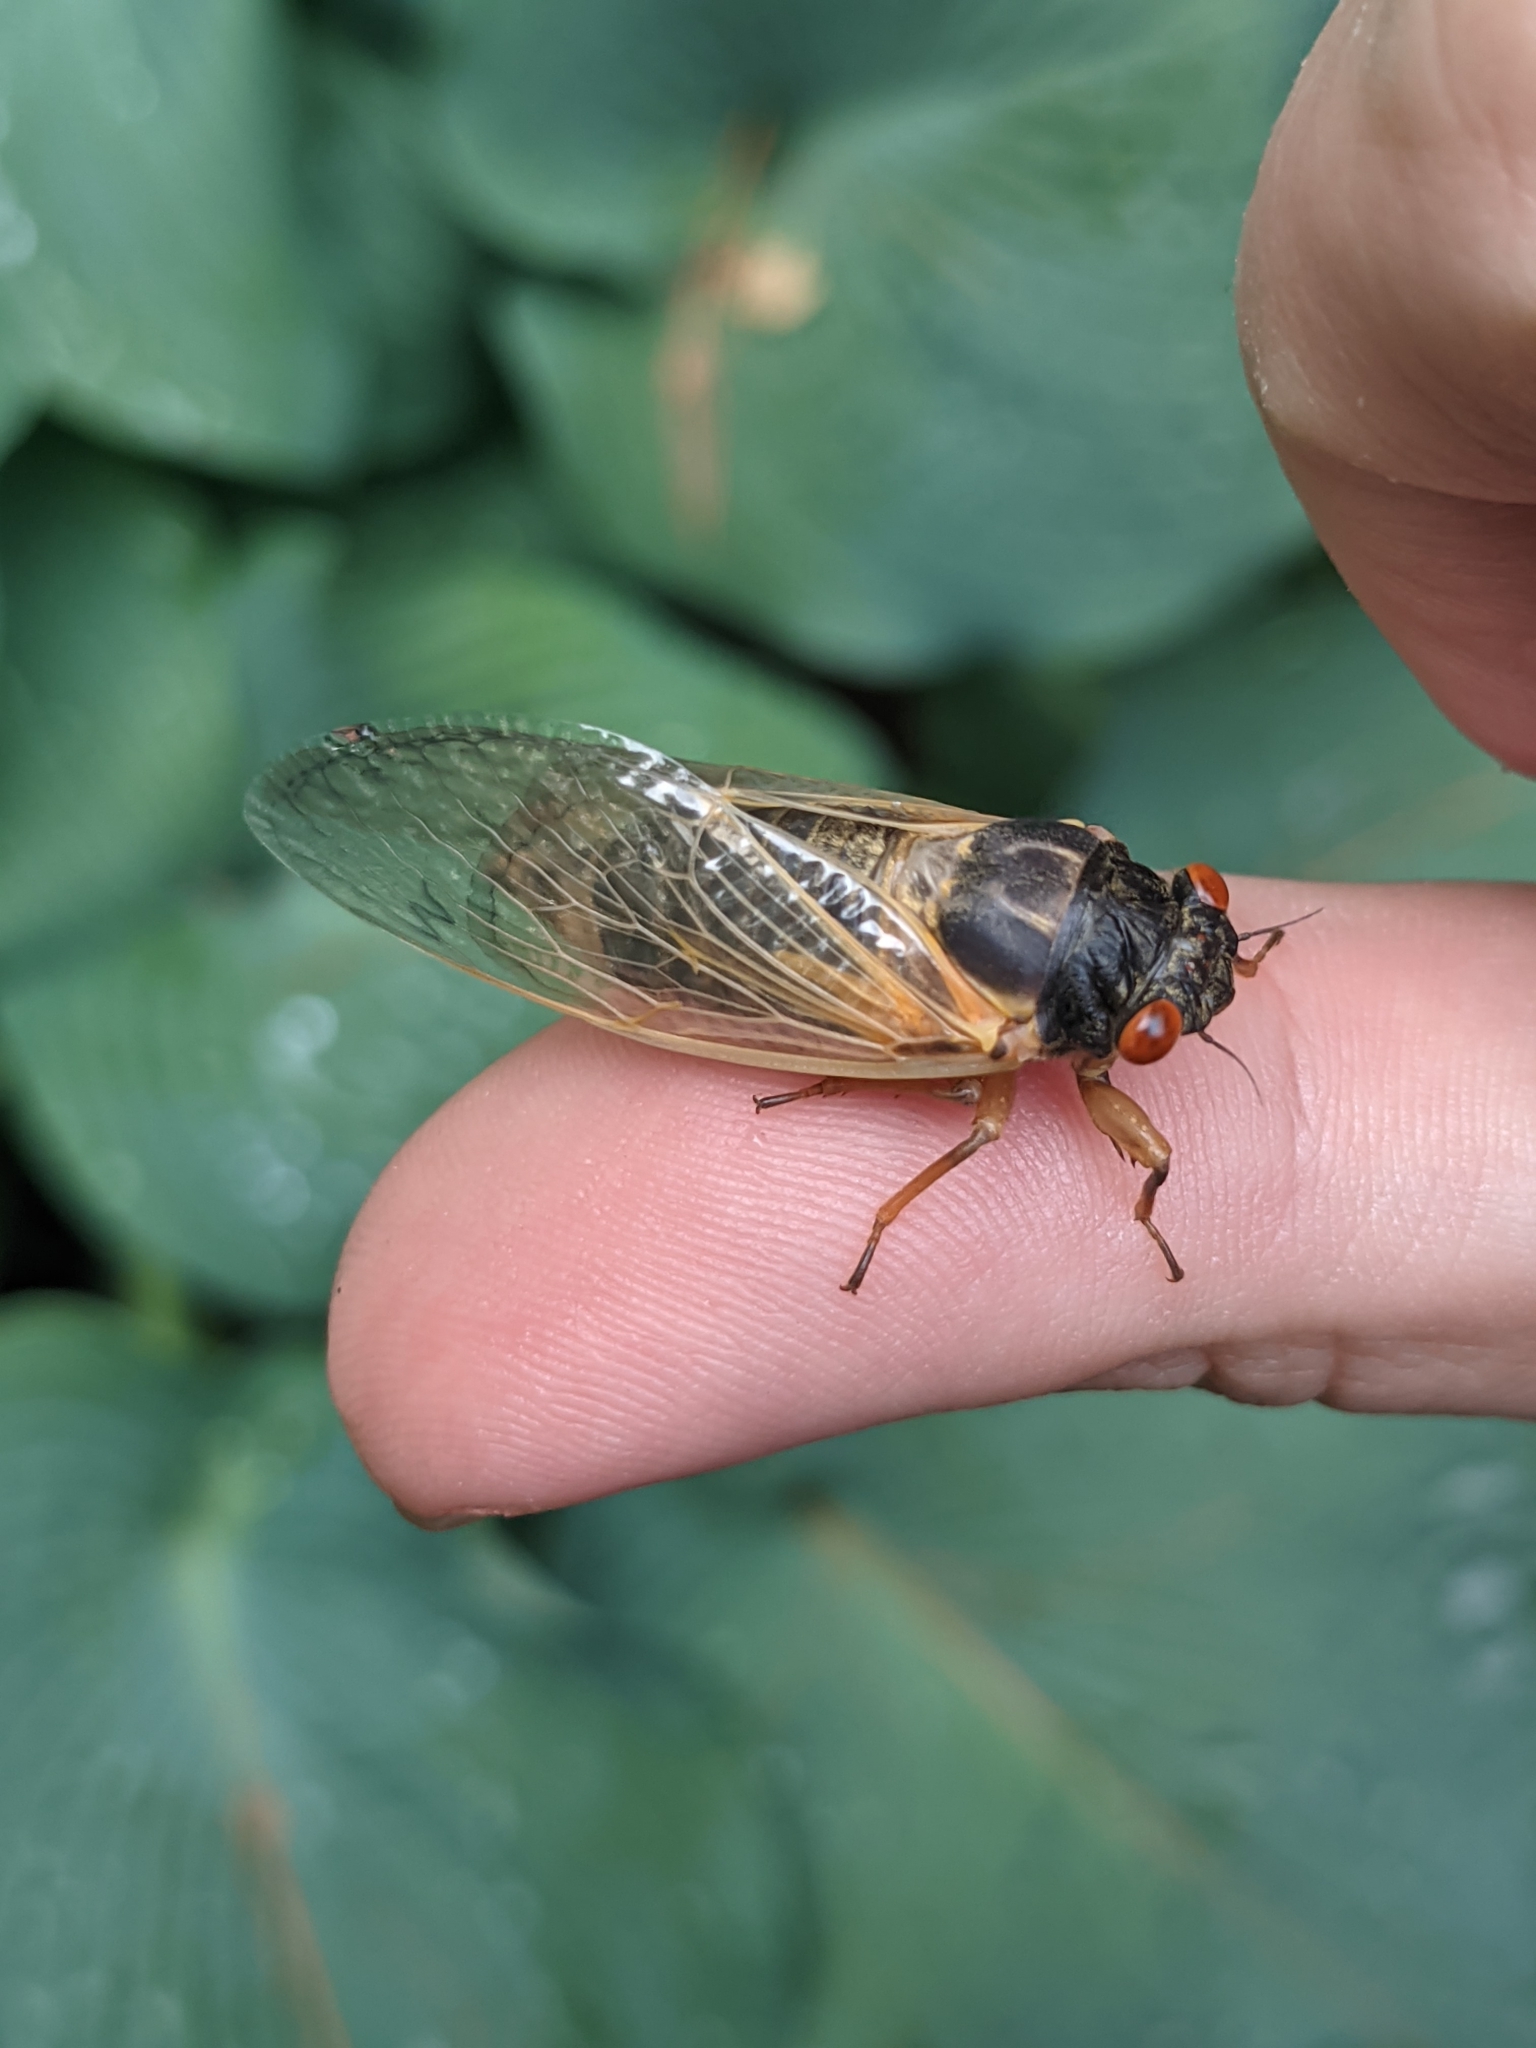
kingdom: Animalia
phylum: Arthropoda
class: Insecta
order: Hemiptera
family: Cicadidae
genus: Magicicada
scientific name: Magicicada
